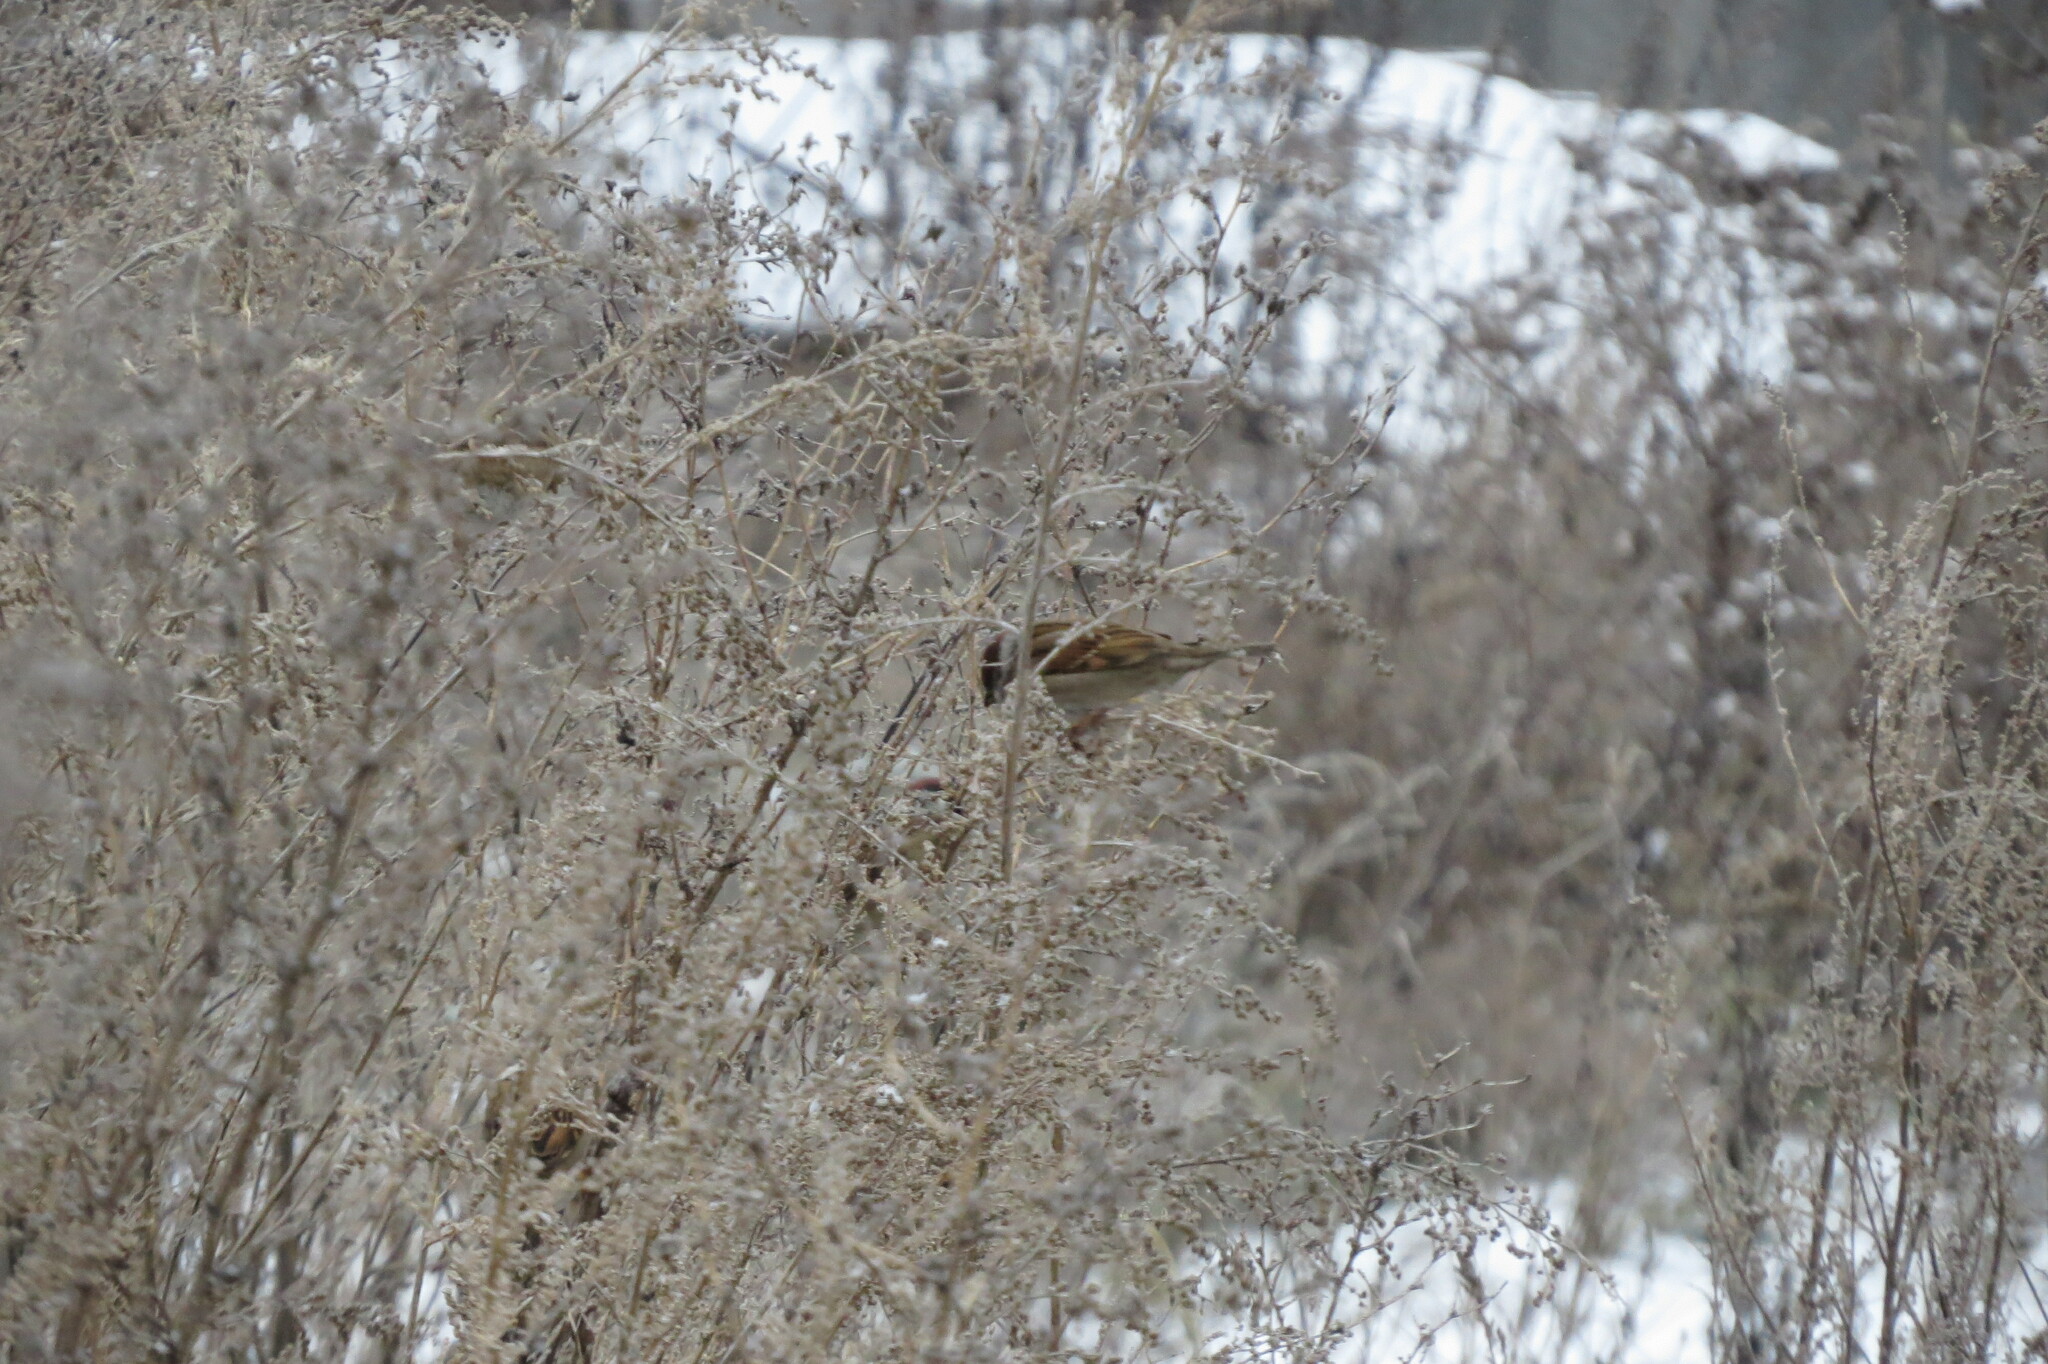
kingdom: Animalia
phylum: Chordata
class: Aves
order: Passeriformes
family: Passeridae
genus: Passer
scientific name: Passer montanus
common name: Eurasian tree sparrow
